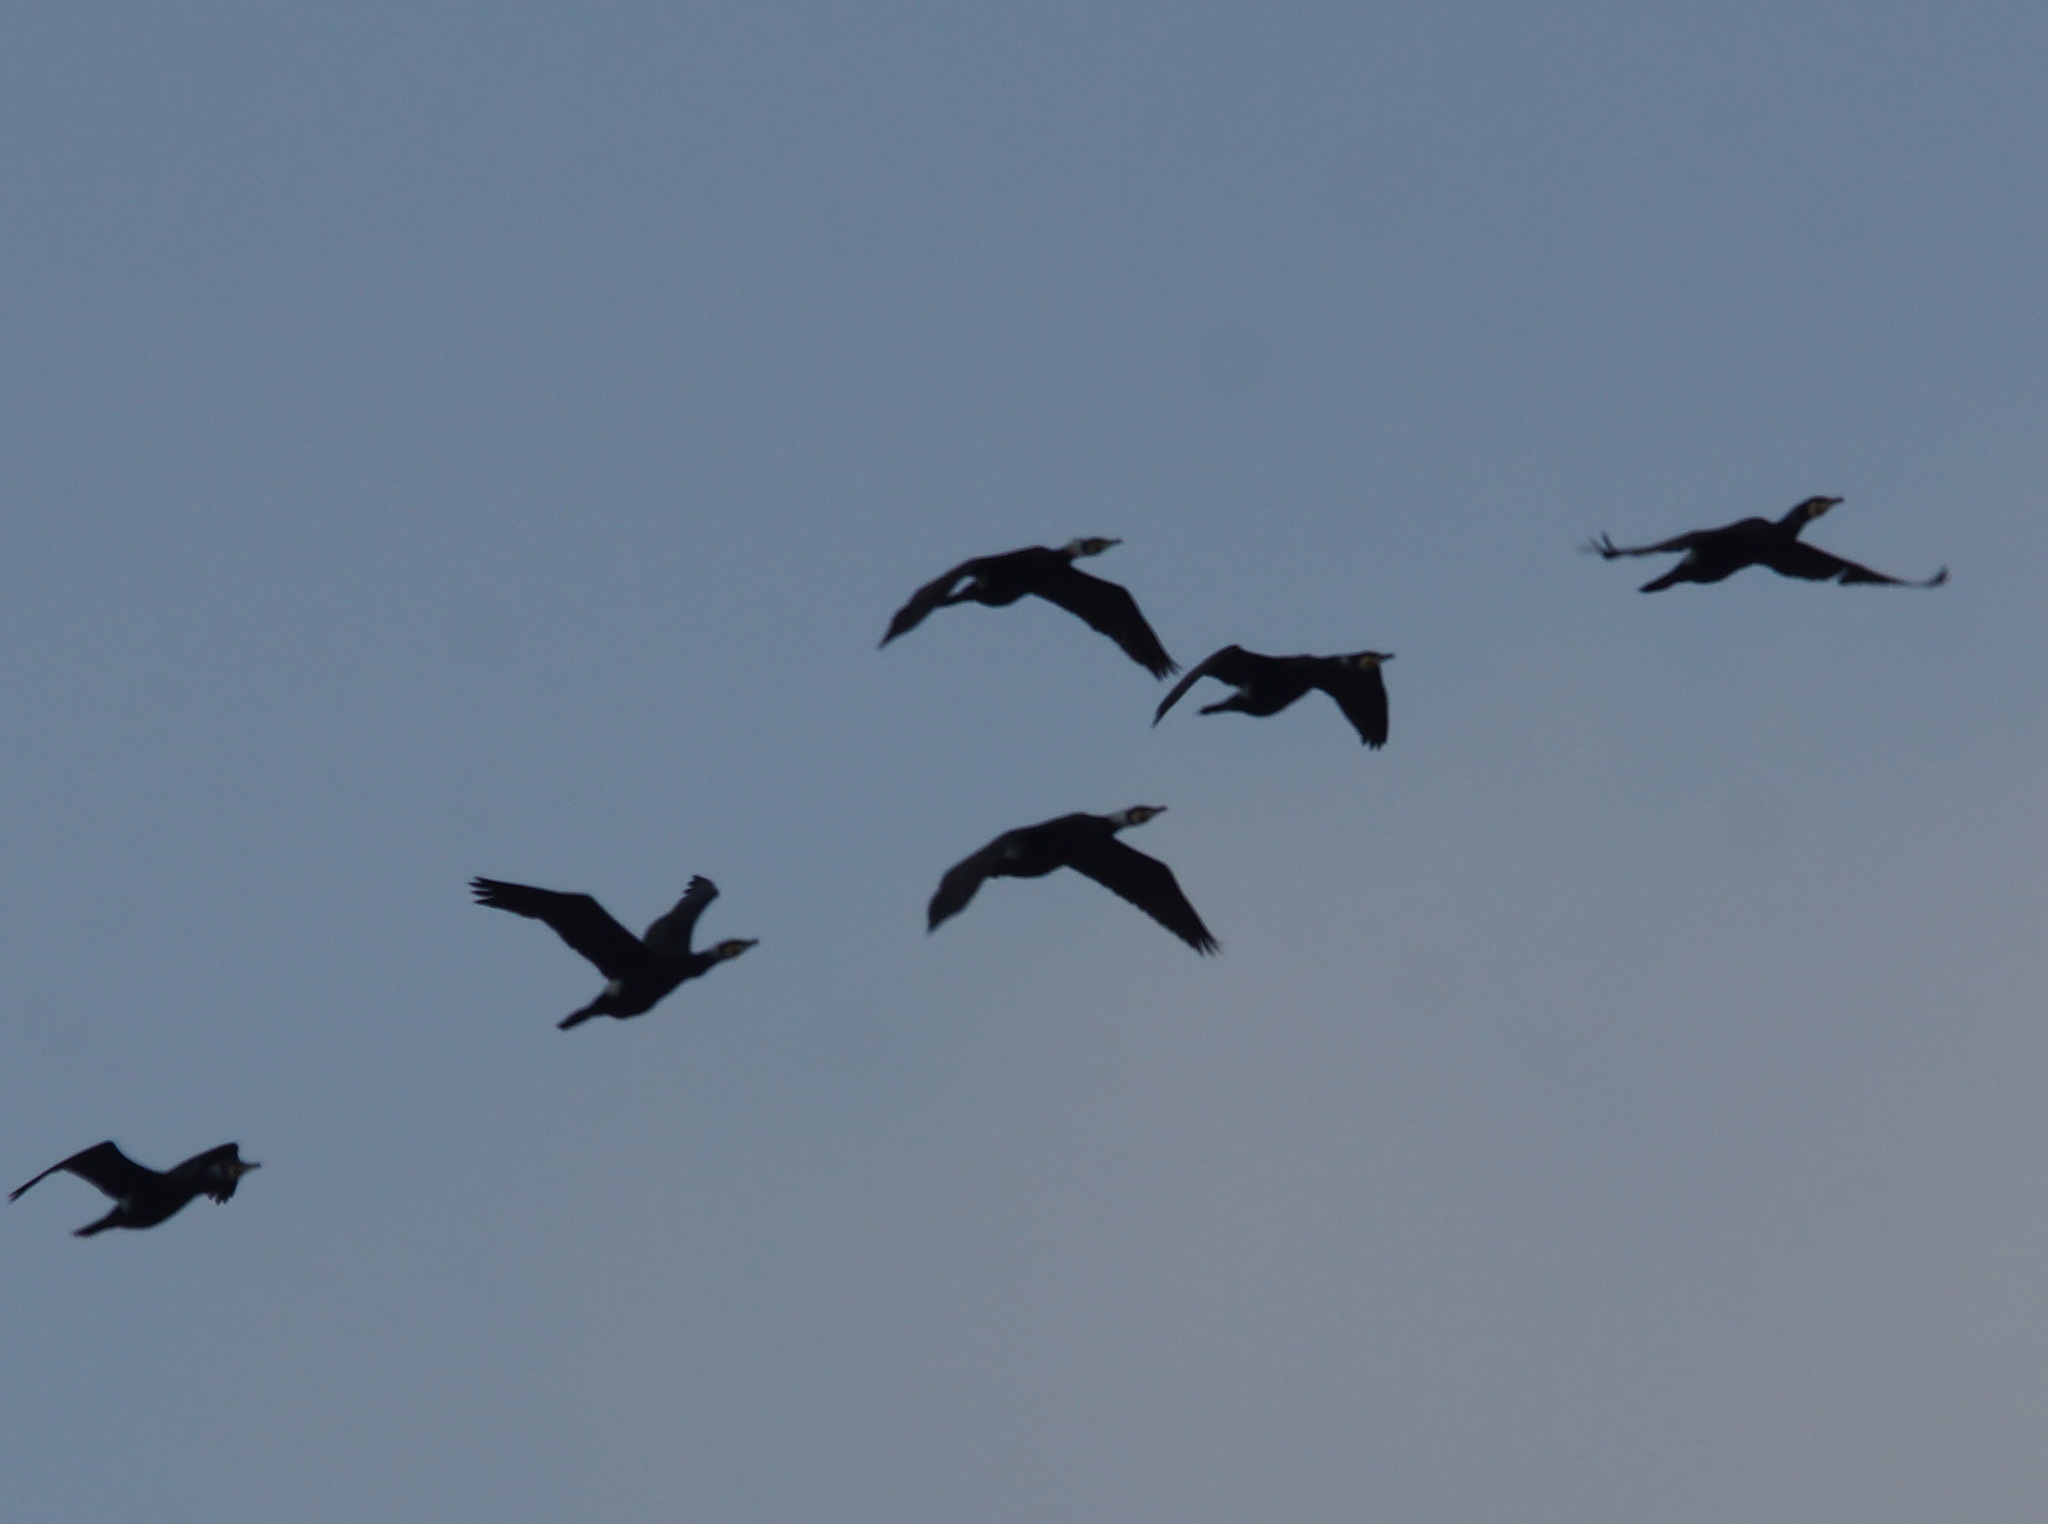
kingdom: Animalia
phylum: Chordata
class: Aves
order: Suliformes
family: Phalacrocoracidae
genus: Phalacrocorax
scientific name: Phalacrocorax carbo
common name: Great cormorant
